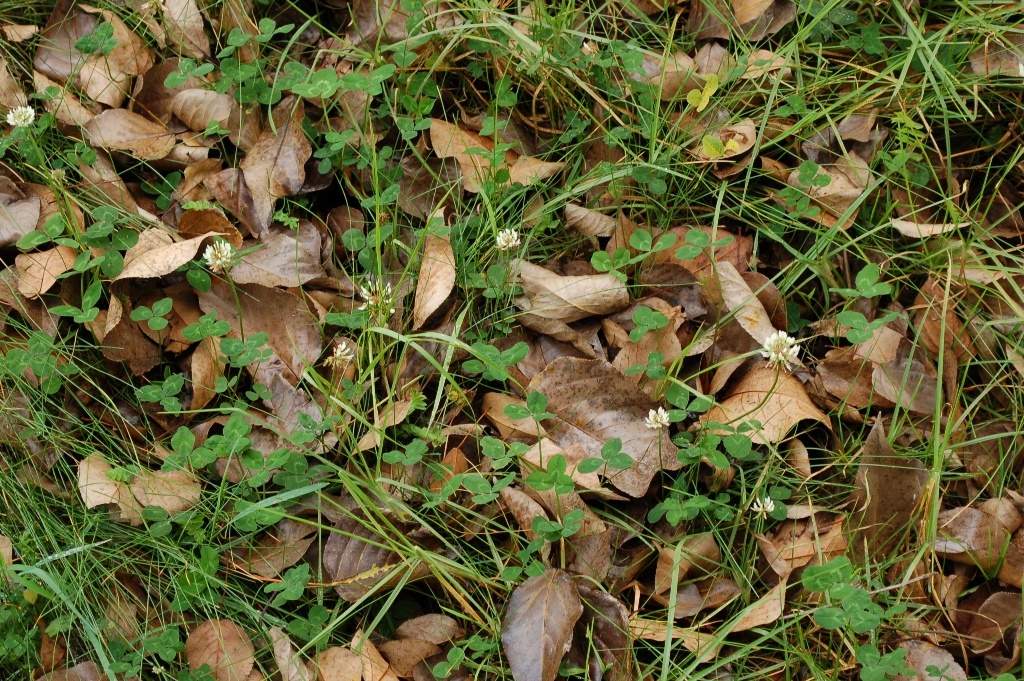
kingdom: Plantae
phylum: Tracheophyta
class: Magnoliopsida
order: Fabales
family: Fabaceae
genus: Trifolium
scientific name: Trifolium repens
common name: White clover
